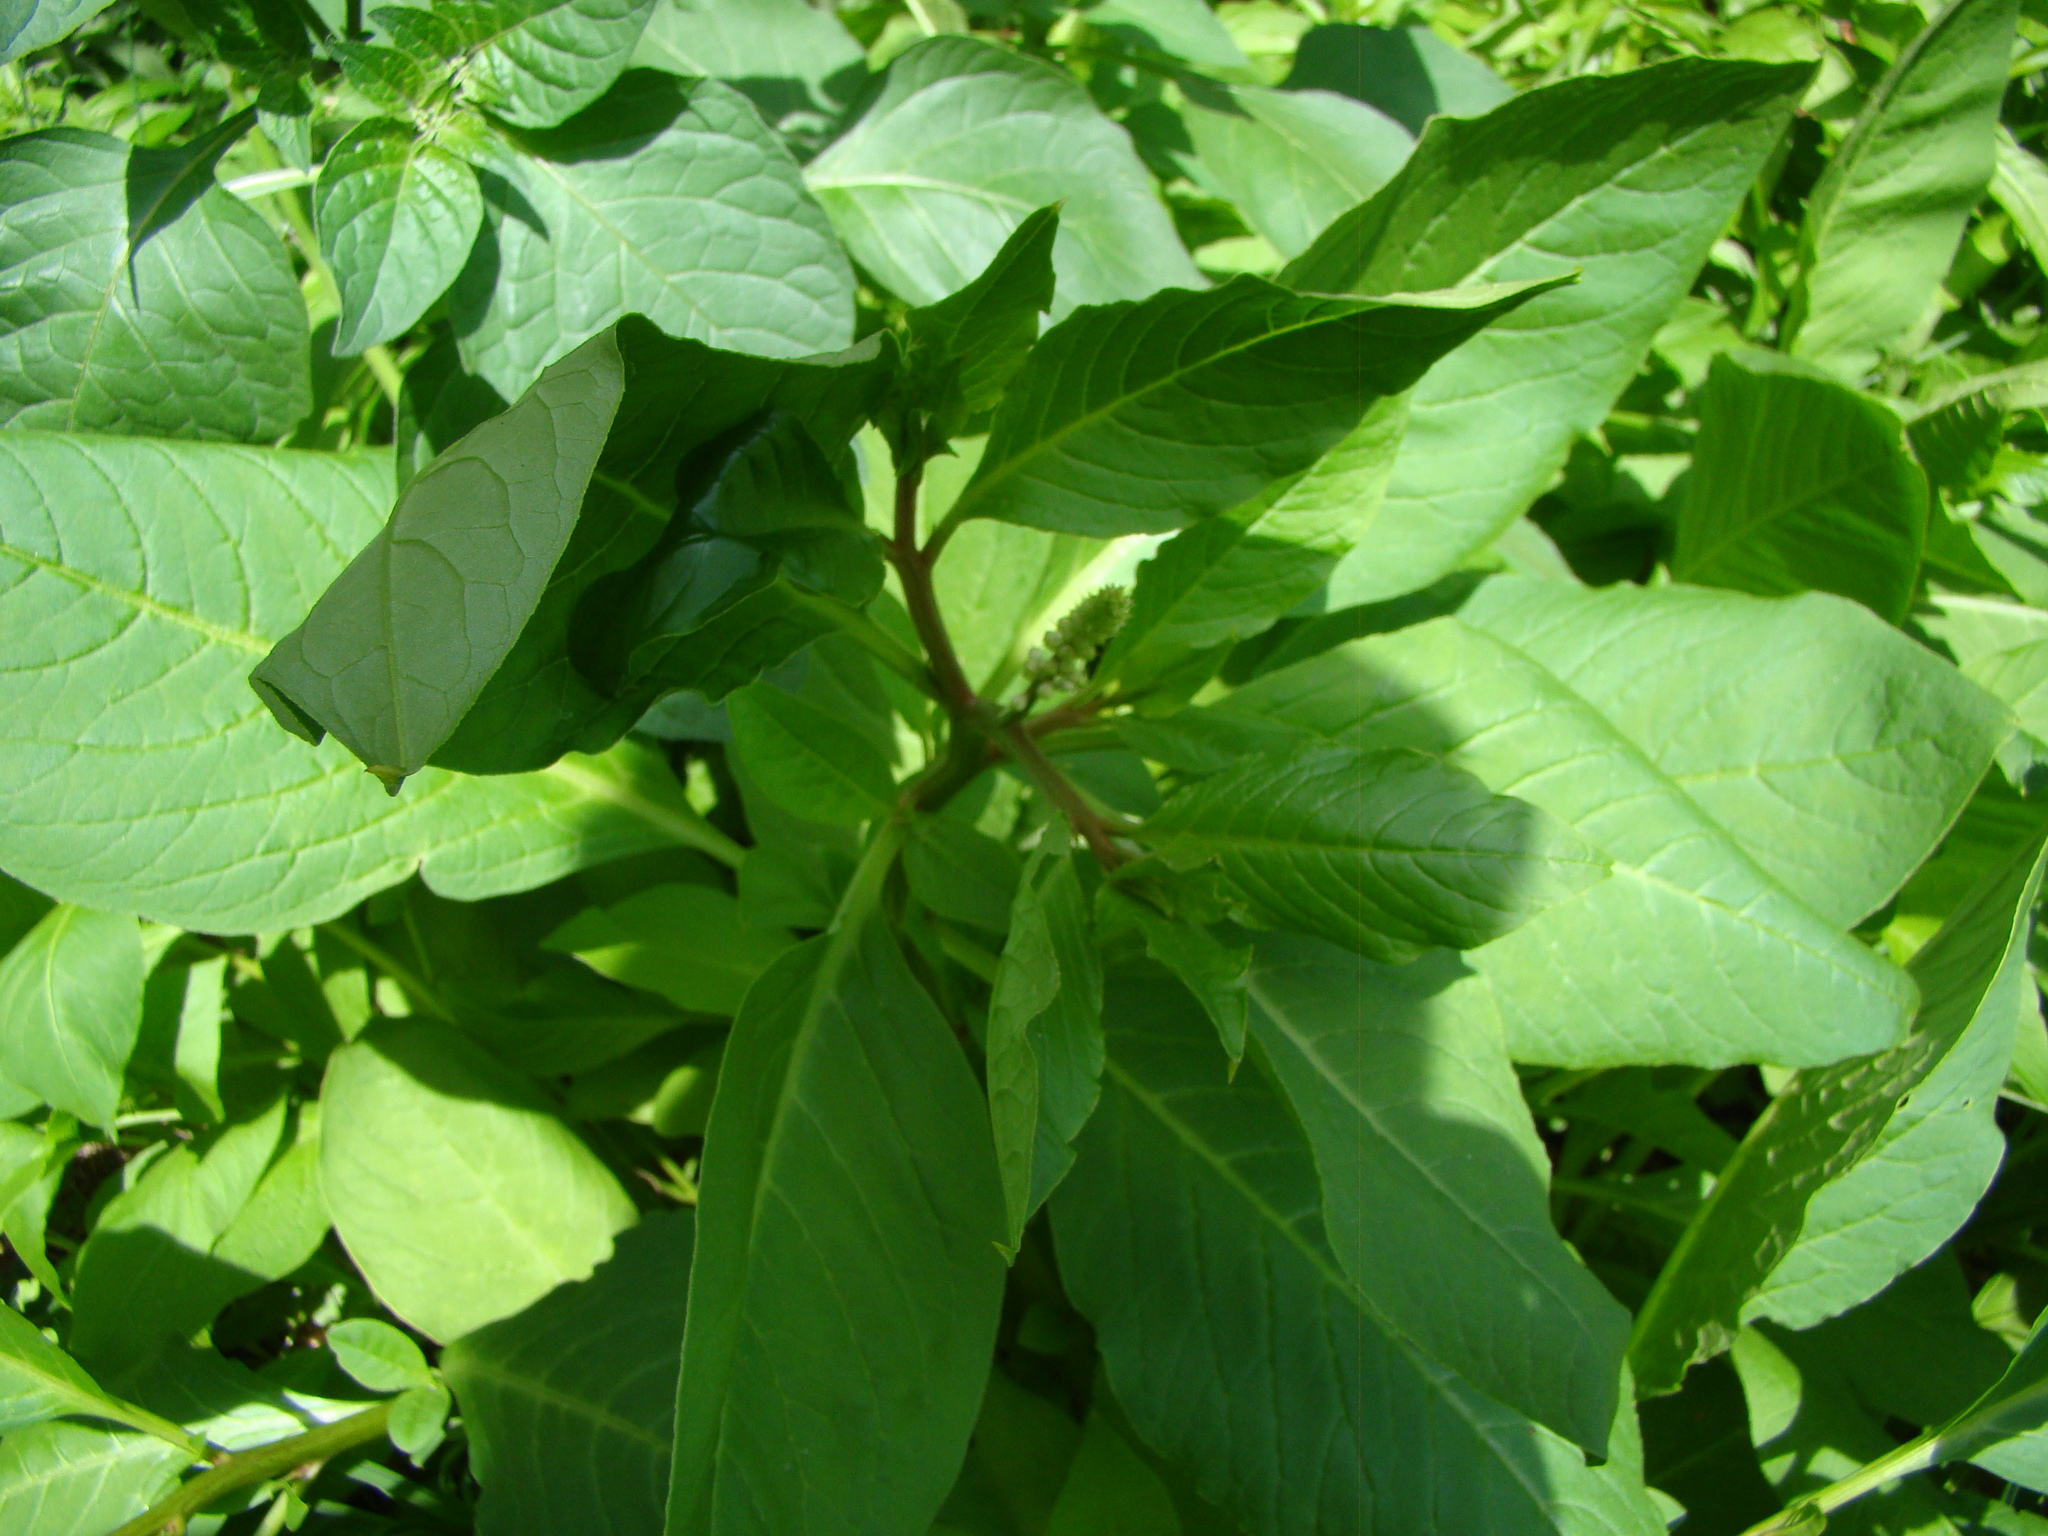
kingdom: Plantae
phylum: Tracheophyta
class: Magnoliopsida
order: Caryophyllales
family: Phytolaccaceae
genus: Phytolacca
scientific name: Phytolacca icosandra
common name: Button pokeweed
